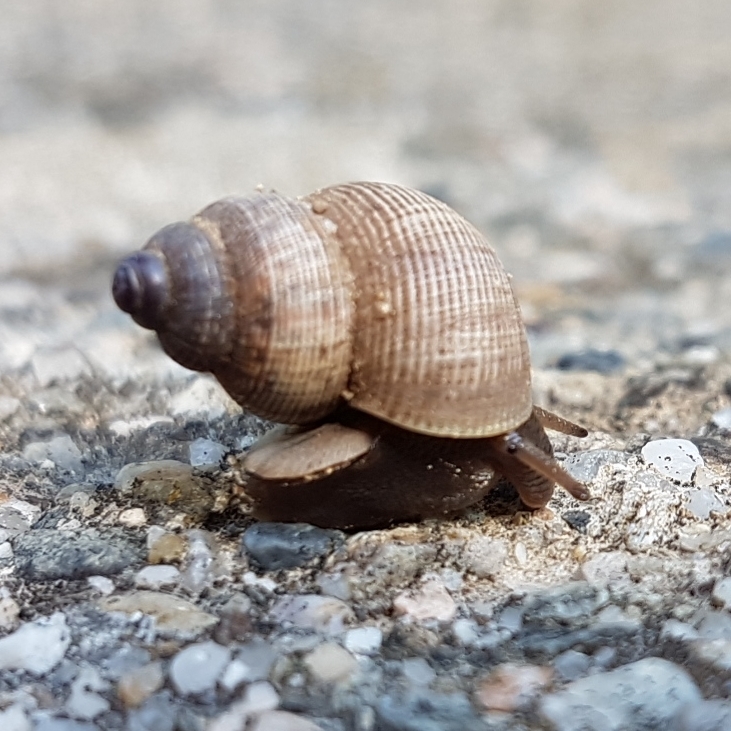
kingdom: Animalia
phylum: Mollusca
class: Gastropoda
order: Littorinimorpha
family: Pomatiidae
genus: Pomatias
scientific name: Pomatias elegans
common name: Red-mouthed snail
